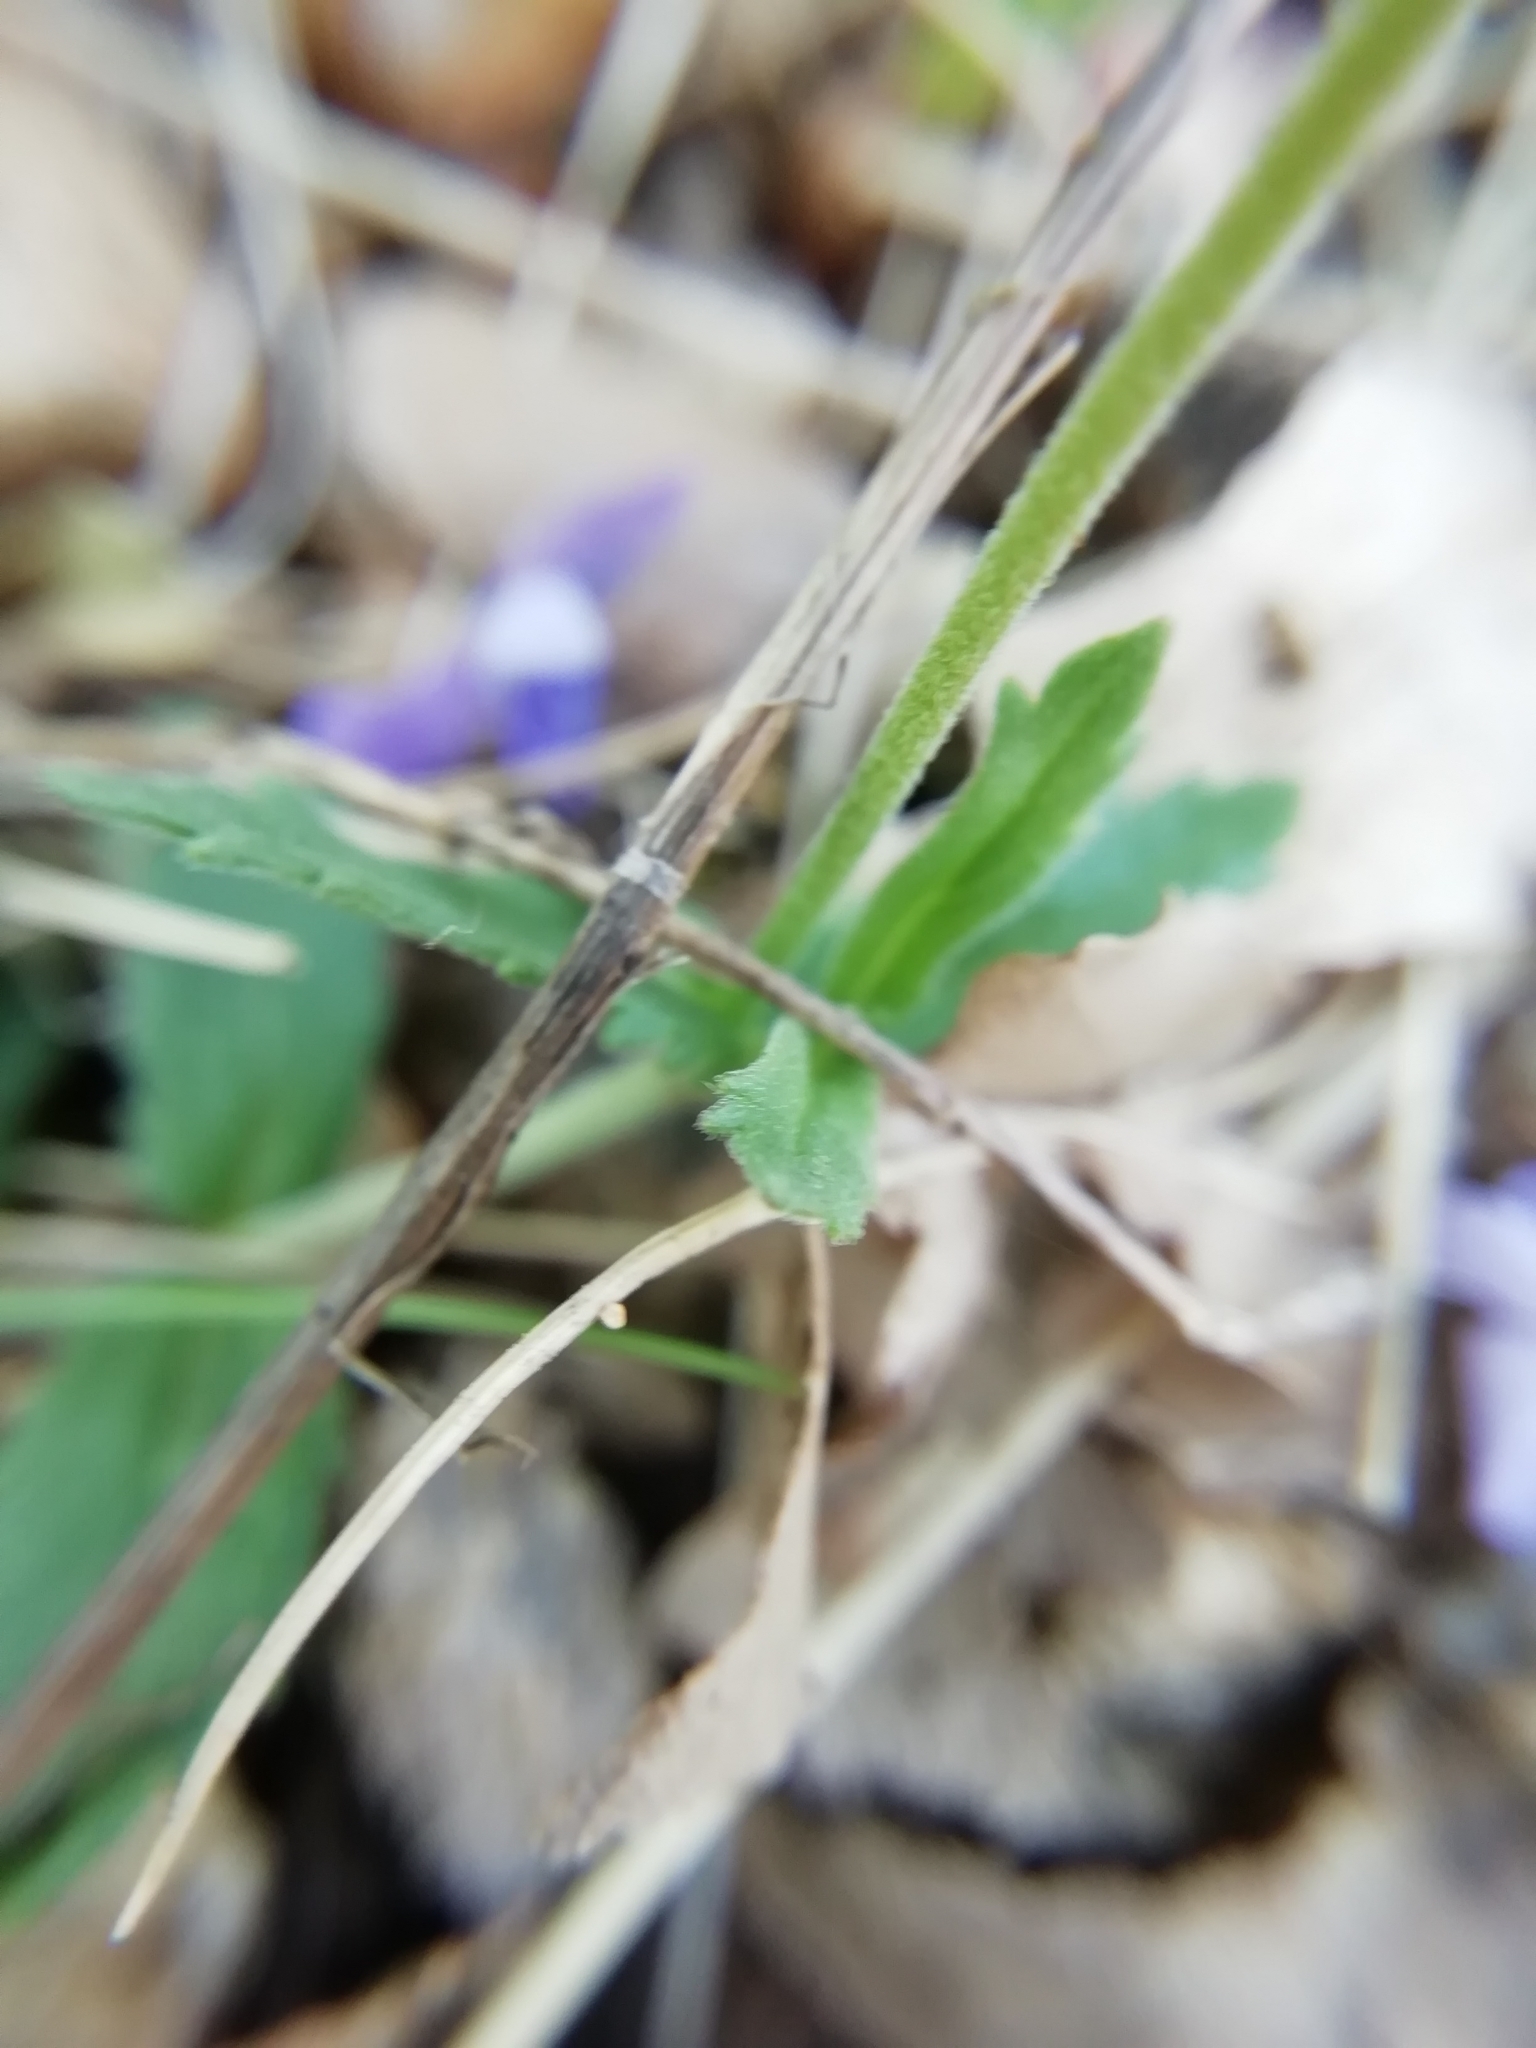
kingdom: Plantae
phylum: Tracheophyta
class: Magnoliopsida
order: Lamiales
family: Plantaginaceae
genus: Veronica
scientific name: Veronica orsiniana
